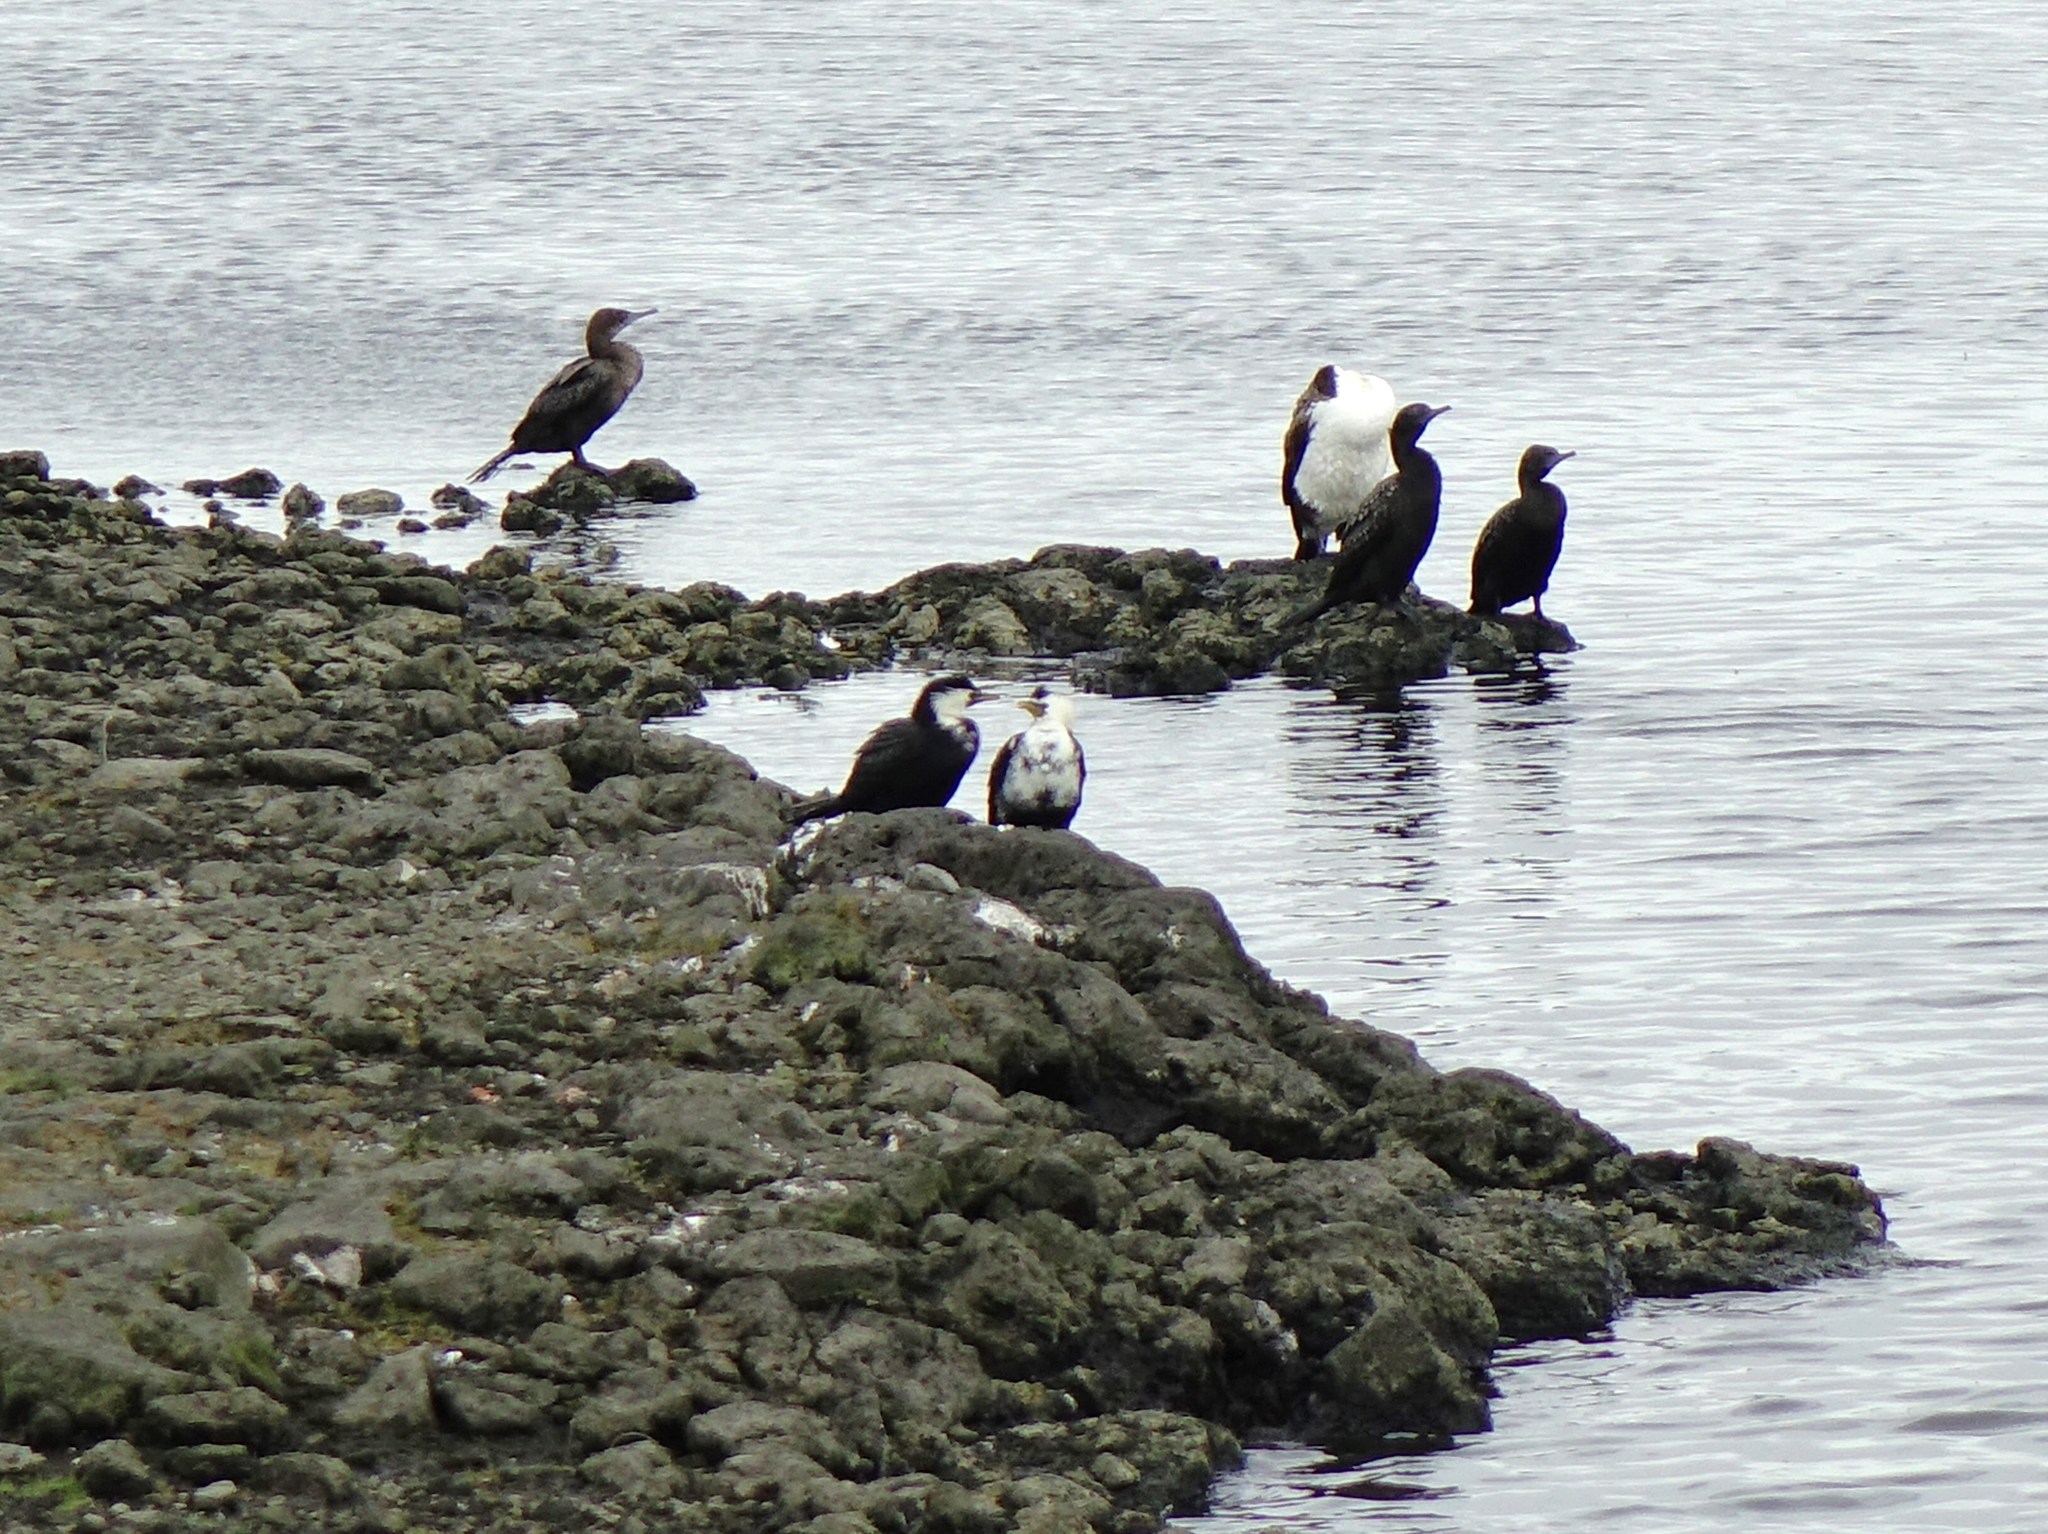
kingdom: Animalia
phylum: Chordata
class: Aves
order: Suliformes
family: Phalacrocoracidae
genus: Phalacrocorax
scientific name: Phalacrocorax sulcirostris
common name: Little black cormorant
